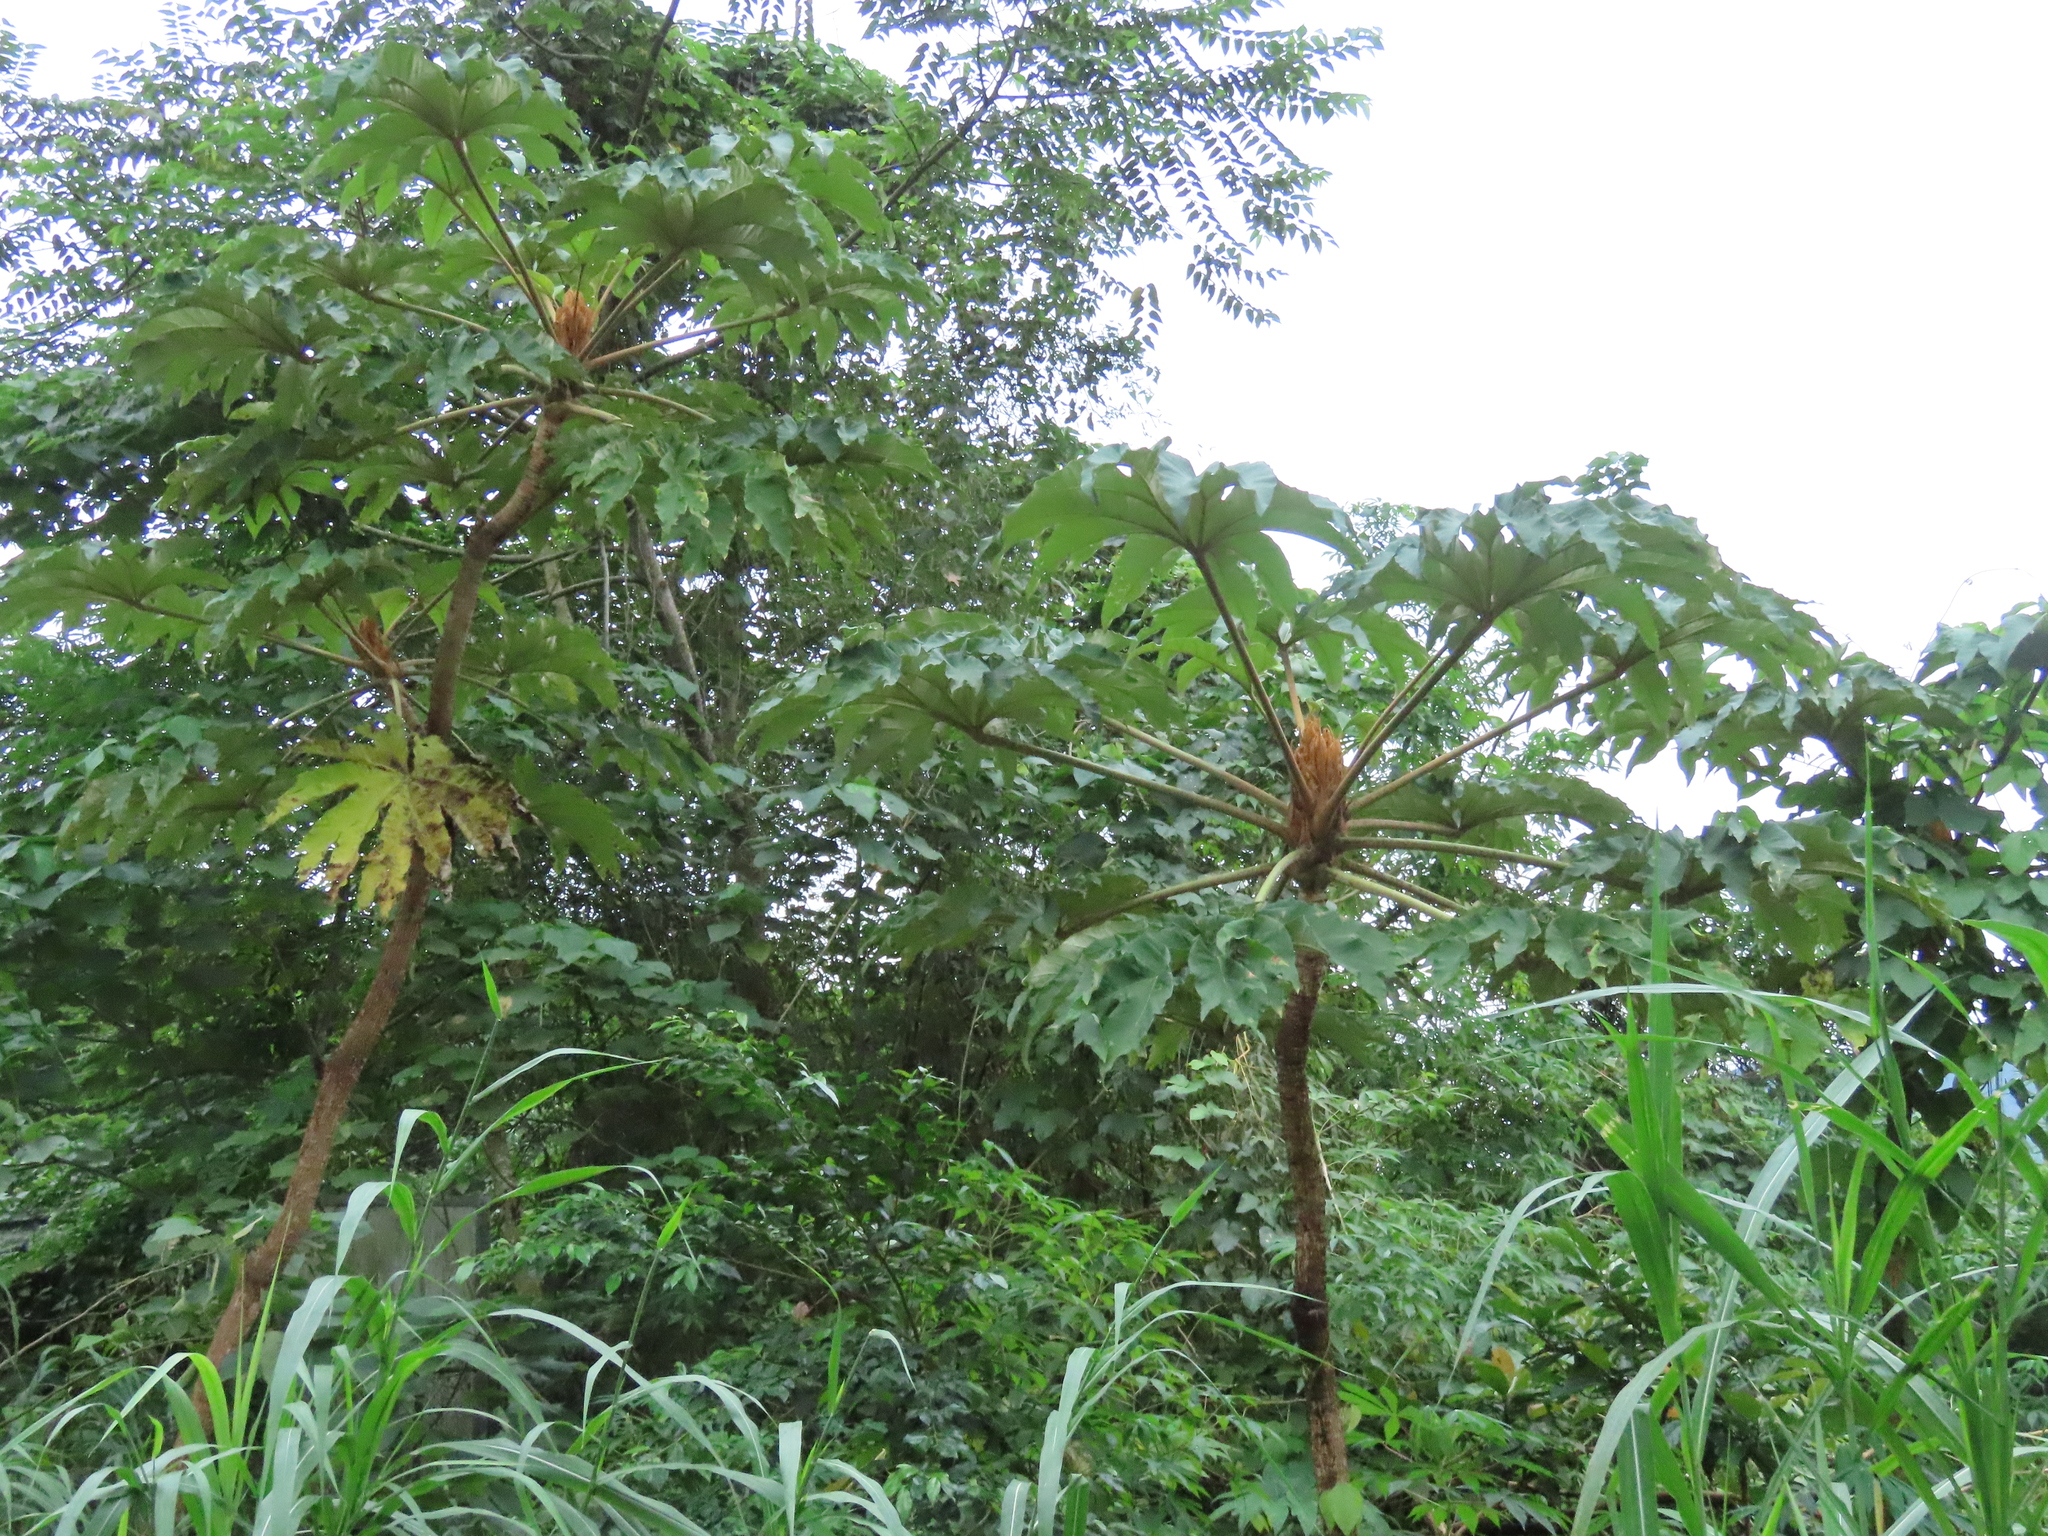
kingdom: Plantae
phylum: Tracheophyta
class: Magnoliopsida
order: Apiales
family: Araliaceae
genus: Tetrapanax
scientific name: Tetrapanax papyrifer
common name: Rice-paper plant
